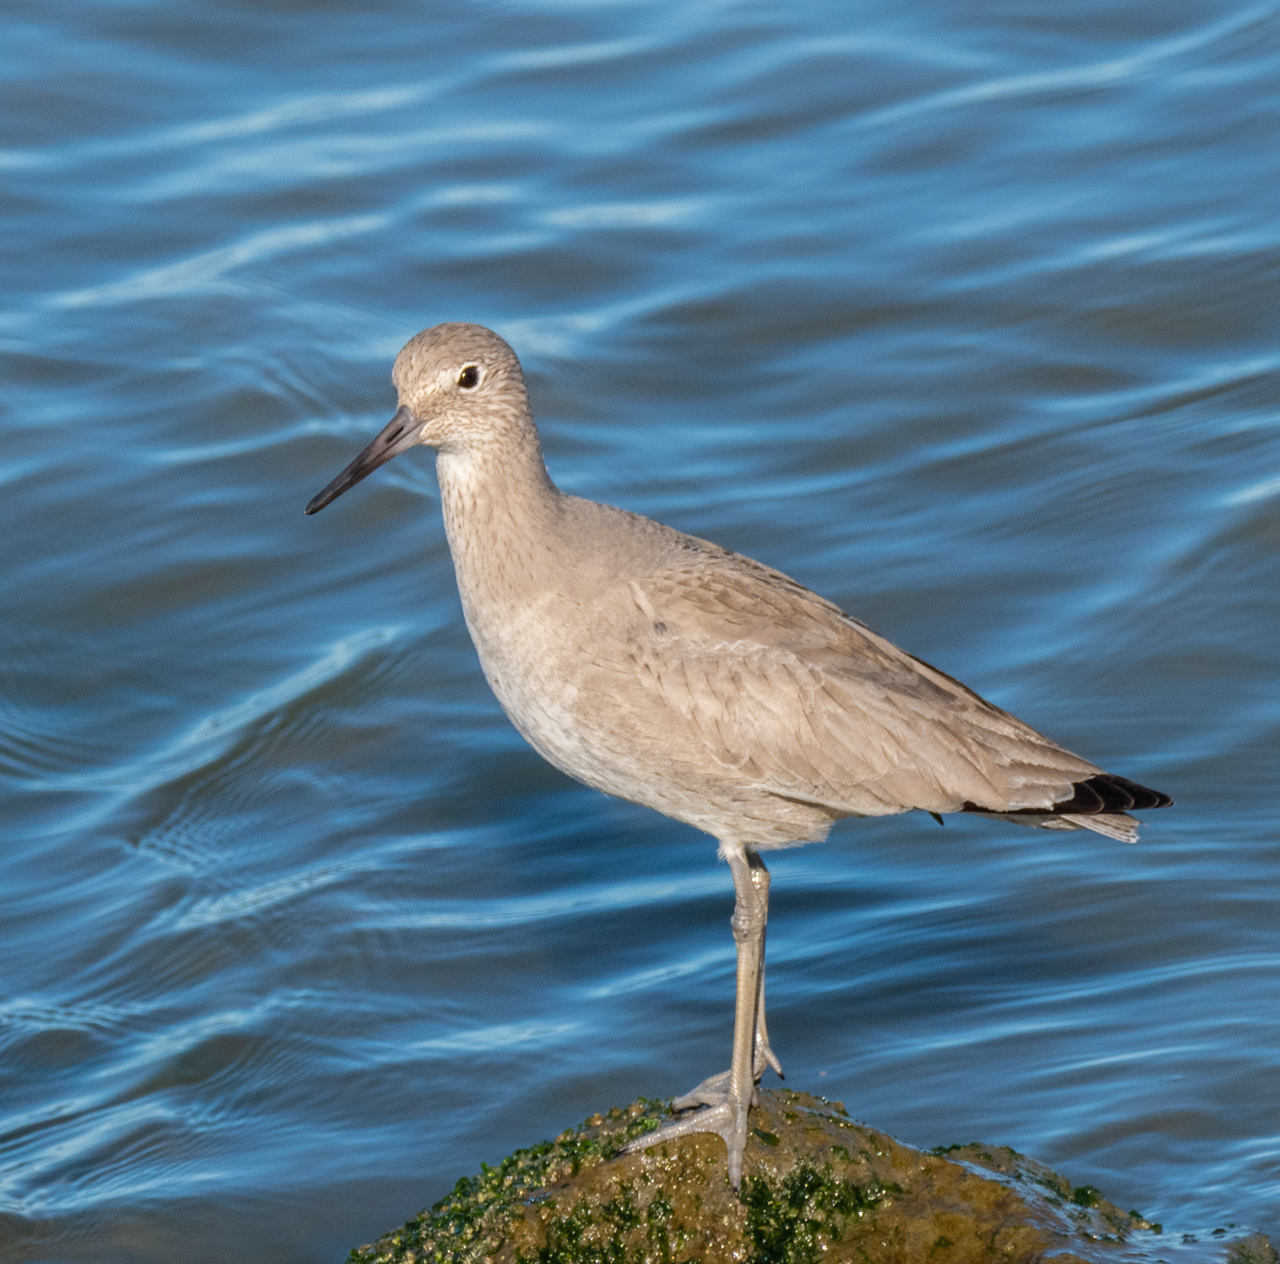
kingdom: Animalia
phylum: Chordata
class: Aves
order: Charadriiformes
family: Scolopacidae
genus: Tringa
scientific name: Tringa semipalmata
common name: Willet
